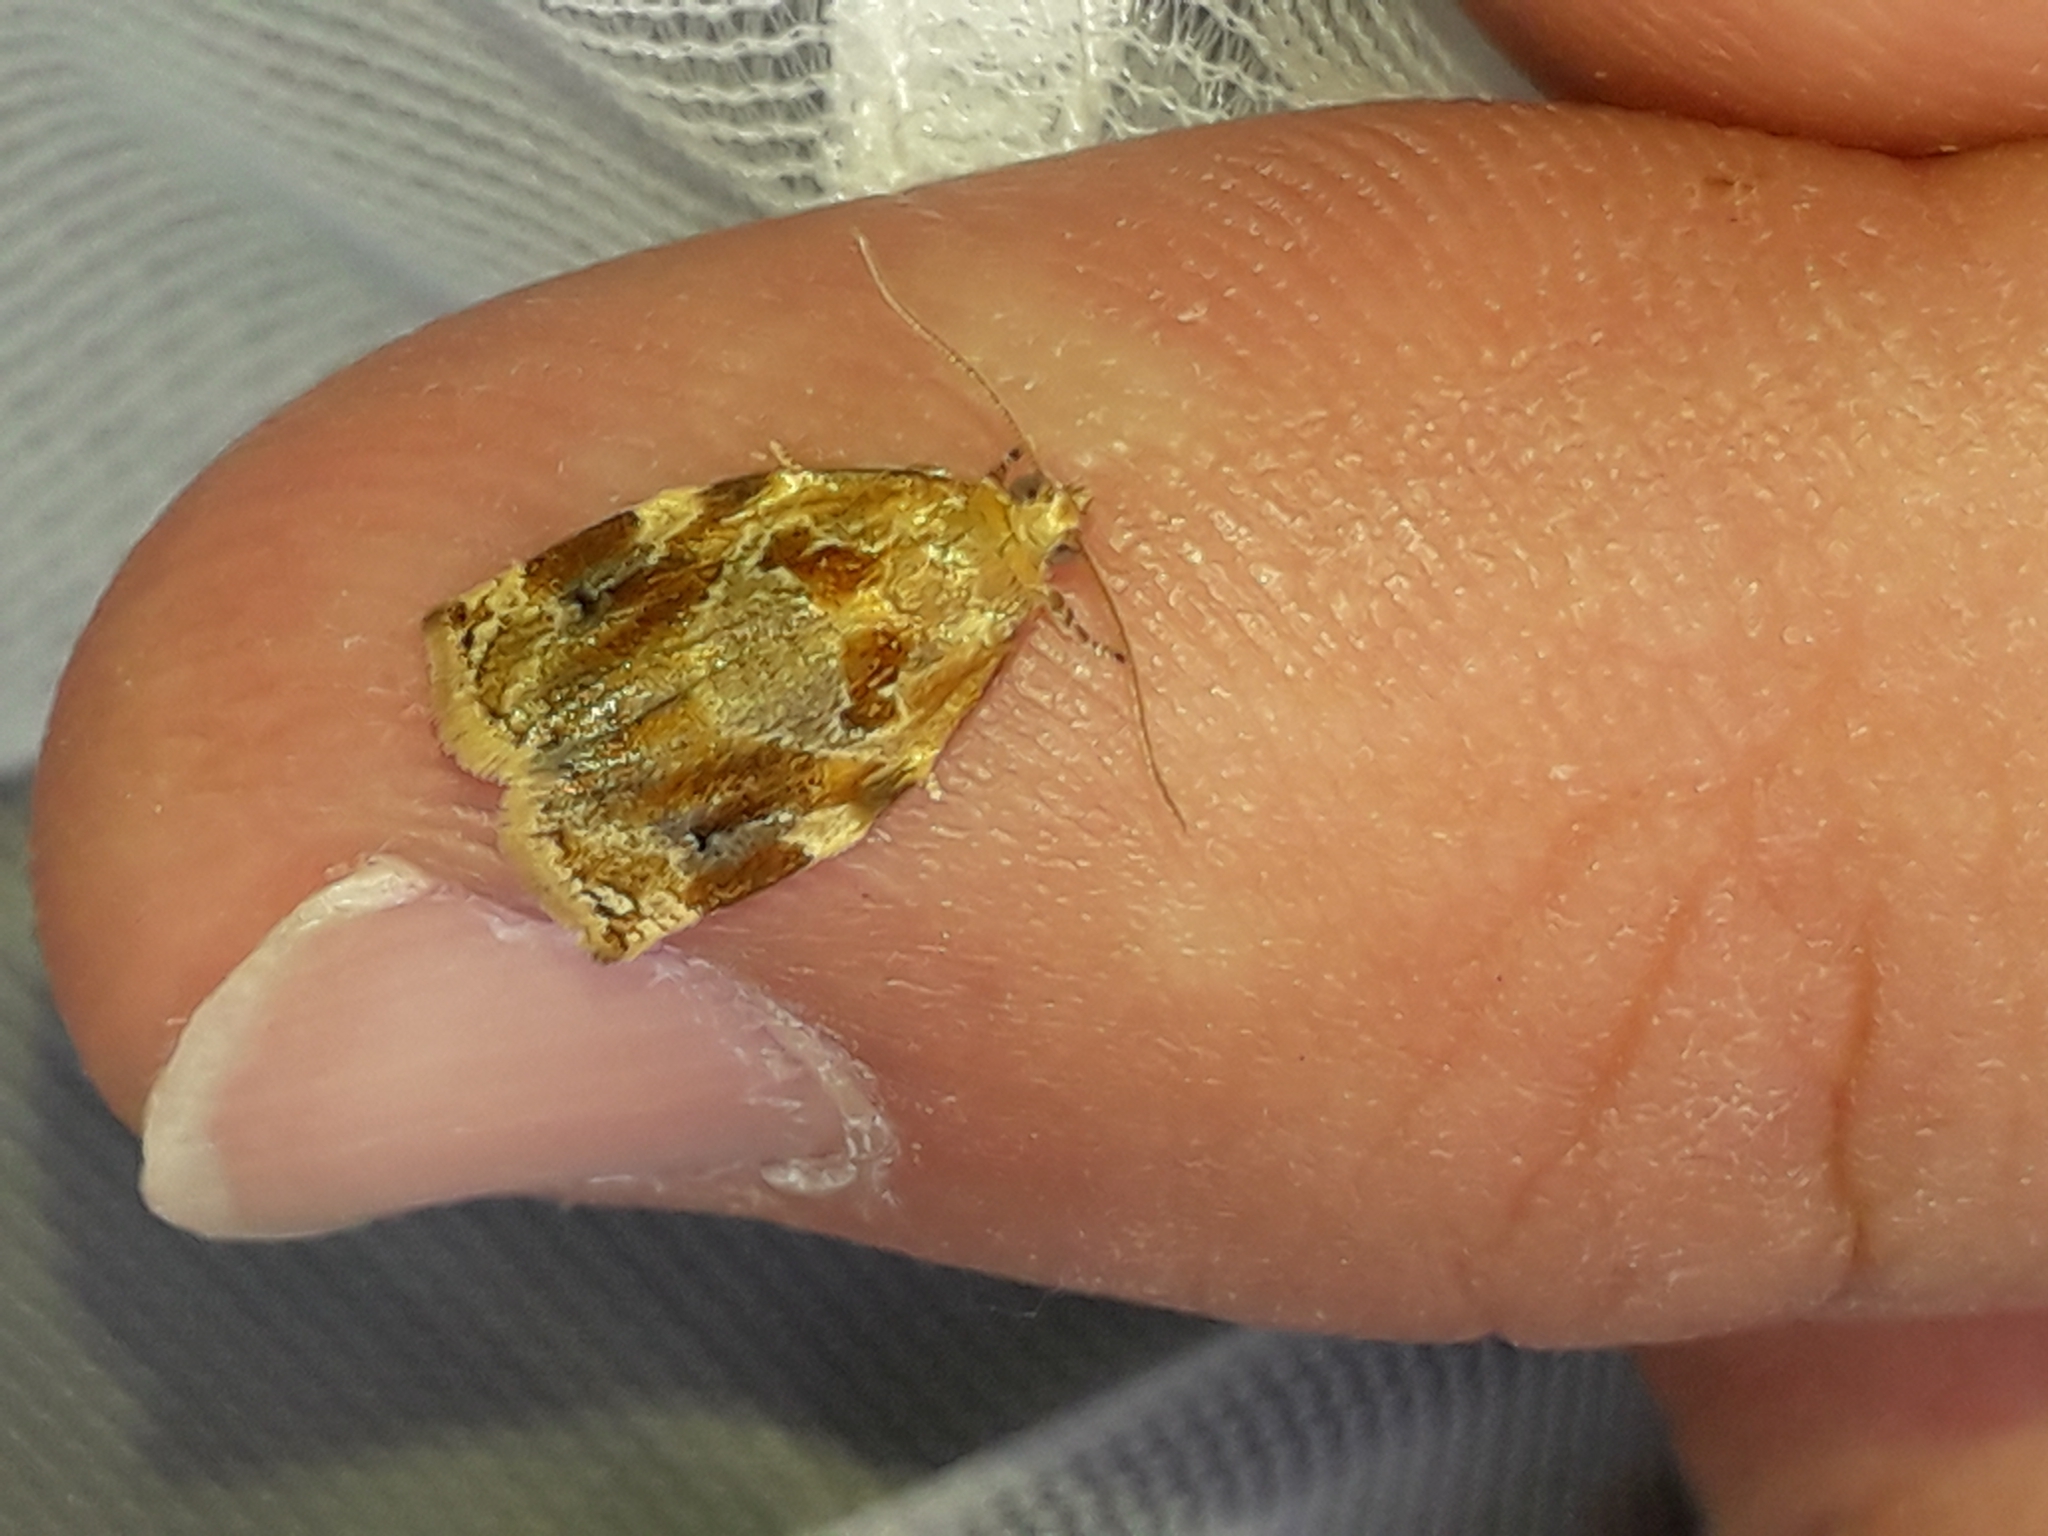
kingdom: Animalia
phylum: Arthropoda
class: Insecta
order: Lepidoptera
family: Tortricidae
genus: Archips
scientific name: Archips xylosteana
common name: Variegated golden tortrix
